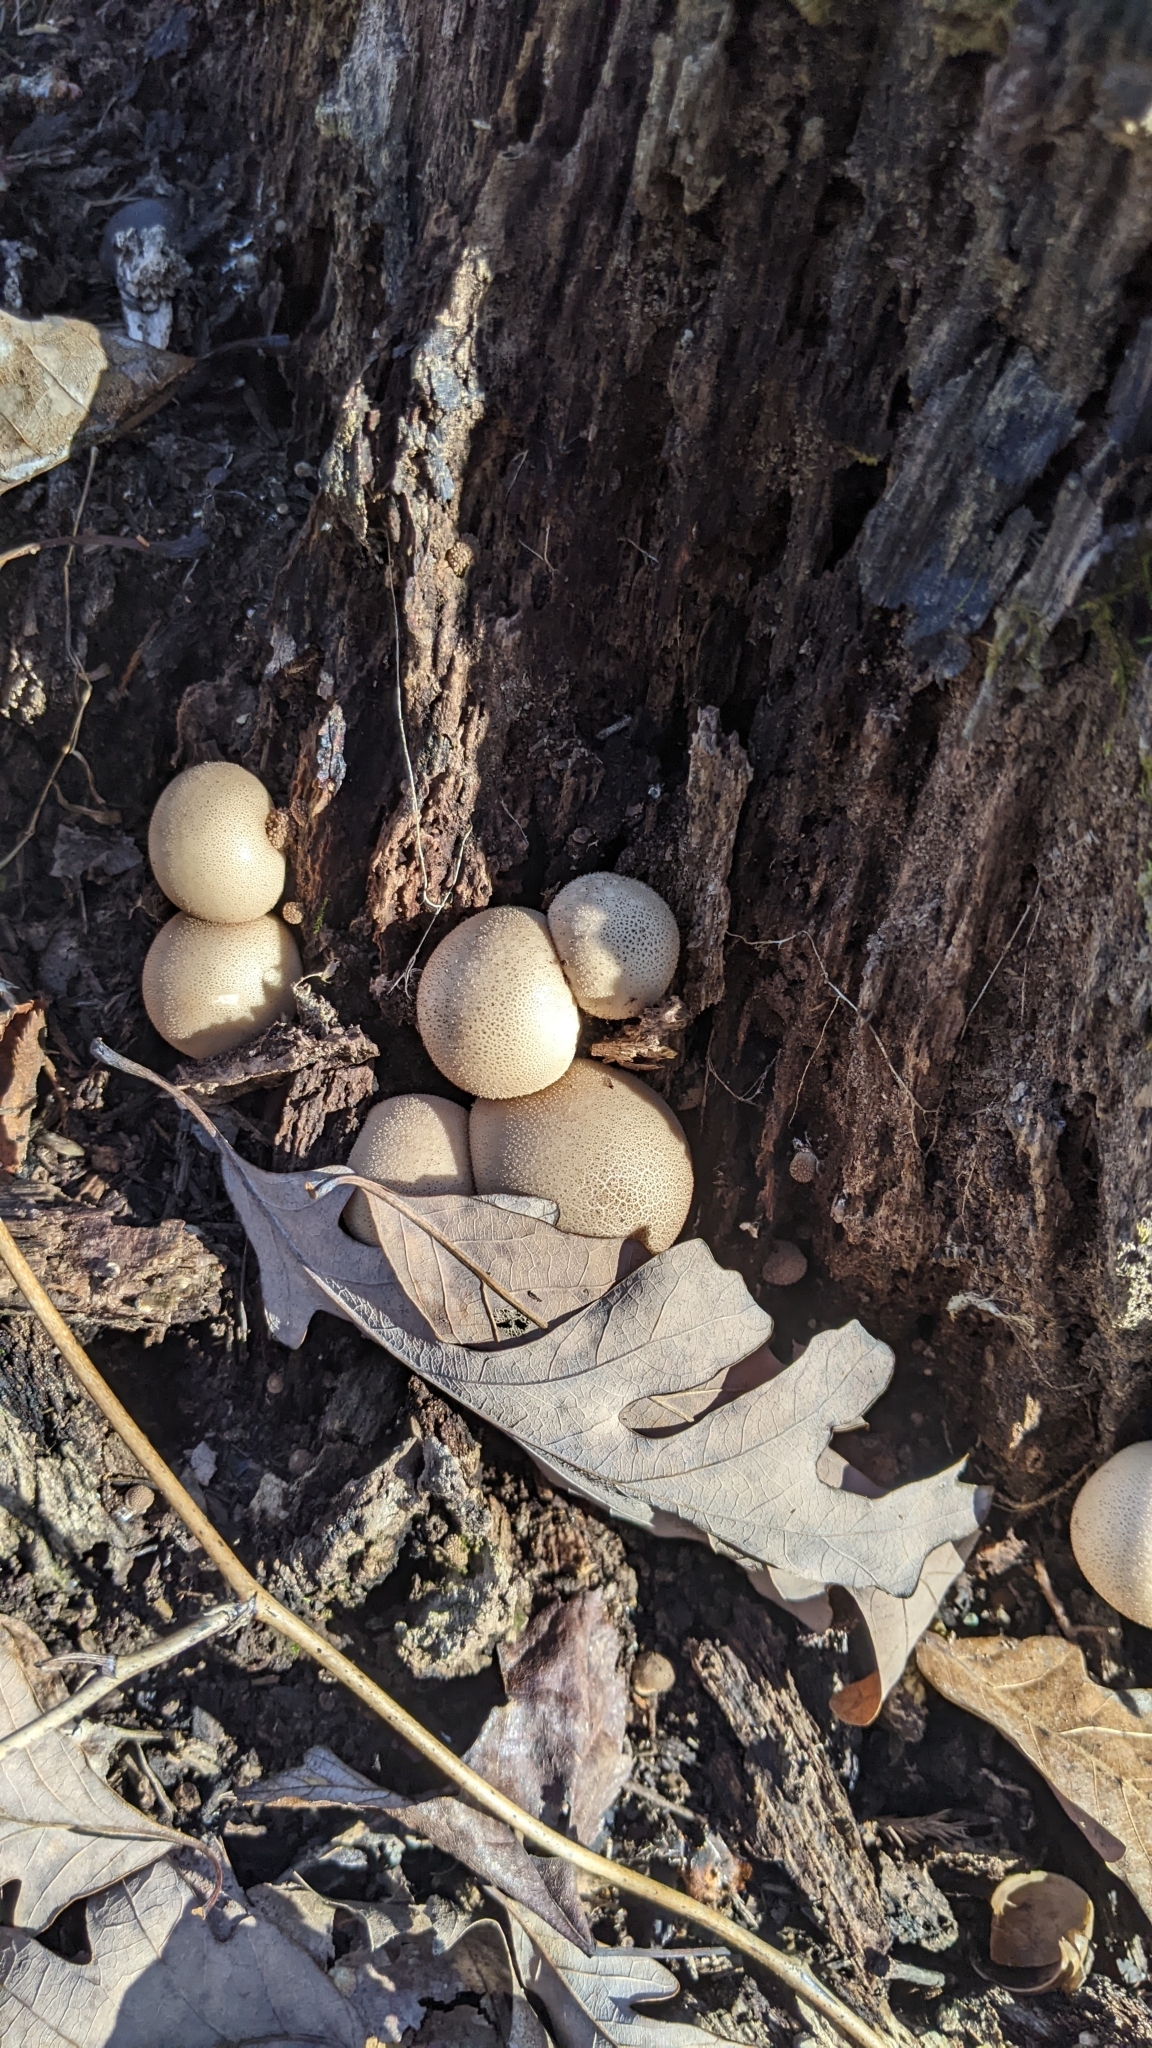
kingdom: Fungi
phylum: Basidiomycota
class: Agaricomycetes
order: Agaricales
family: Lycoperdaceae
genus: Apioperdon
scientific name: Apioperdon pyriforme
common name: Pear-shaped puffball
